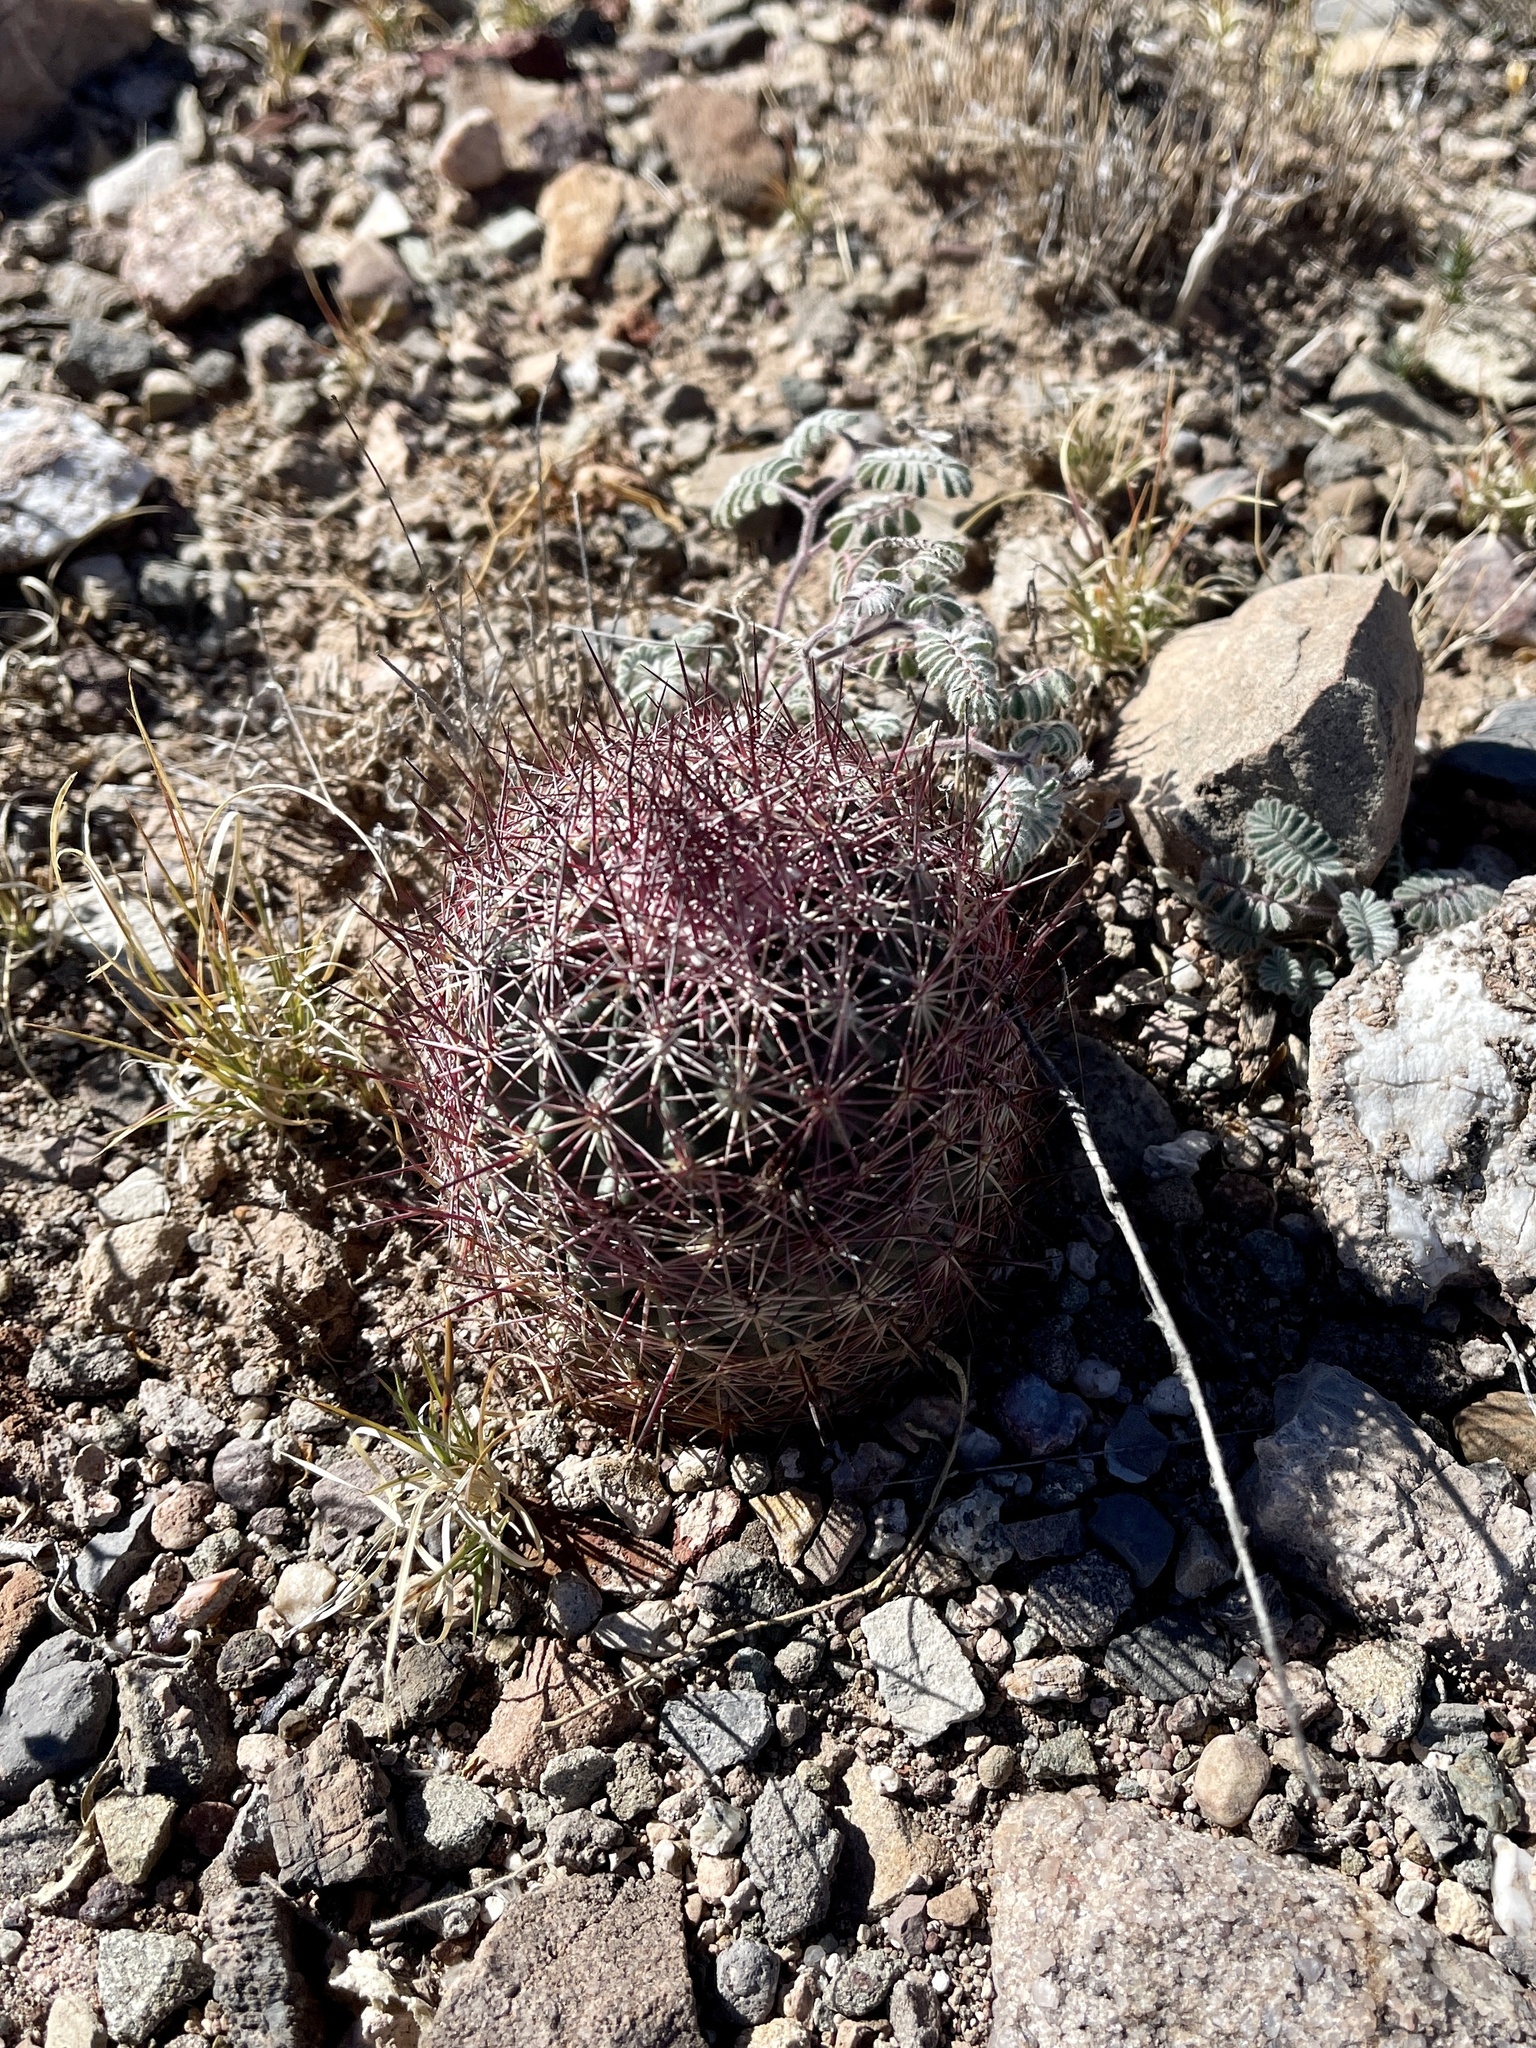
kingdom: Plantae
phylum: Tracheophyta
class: Magnoliopsida
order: Caryophyllales
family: Cactaceae
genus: Sclerocactus
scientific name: Sclerocactus johnsonii
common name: Eight-spine fishhook cactus
